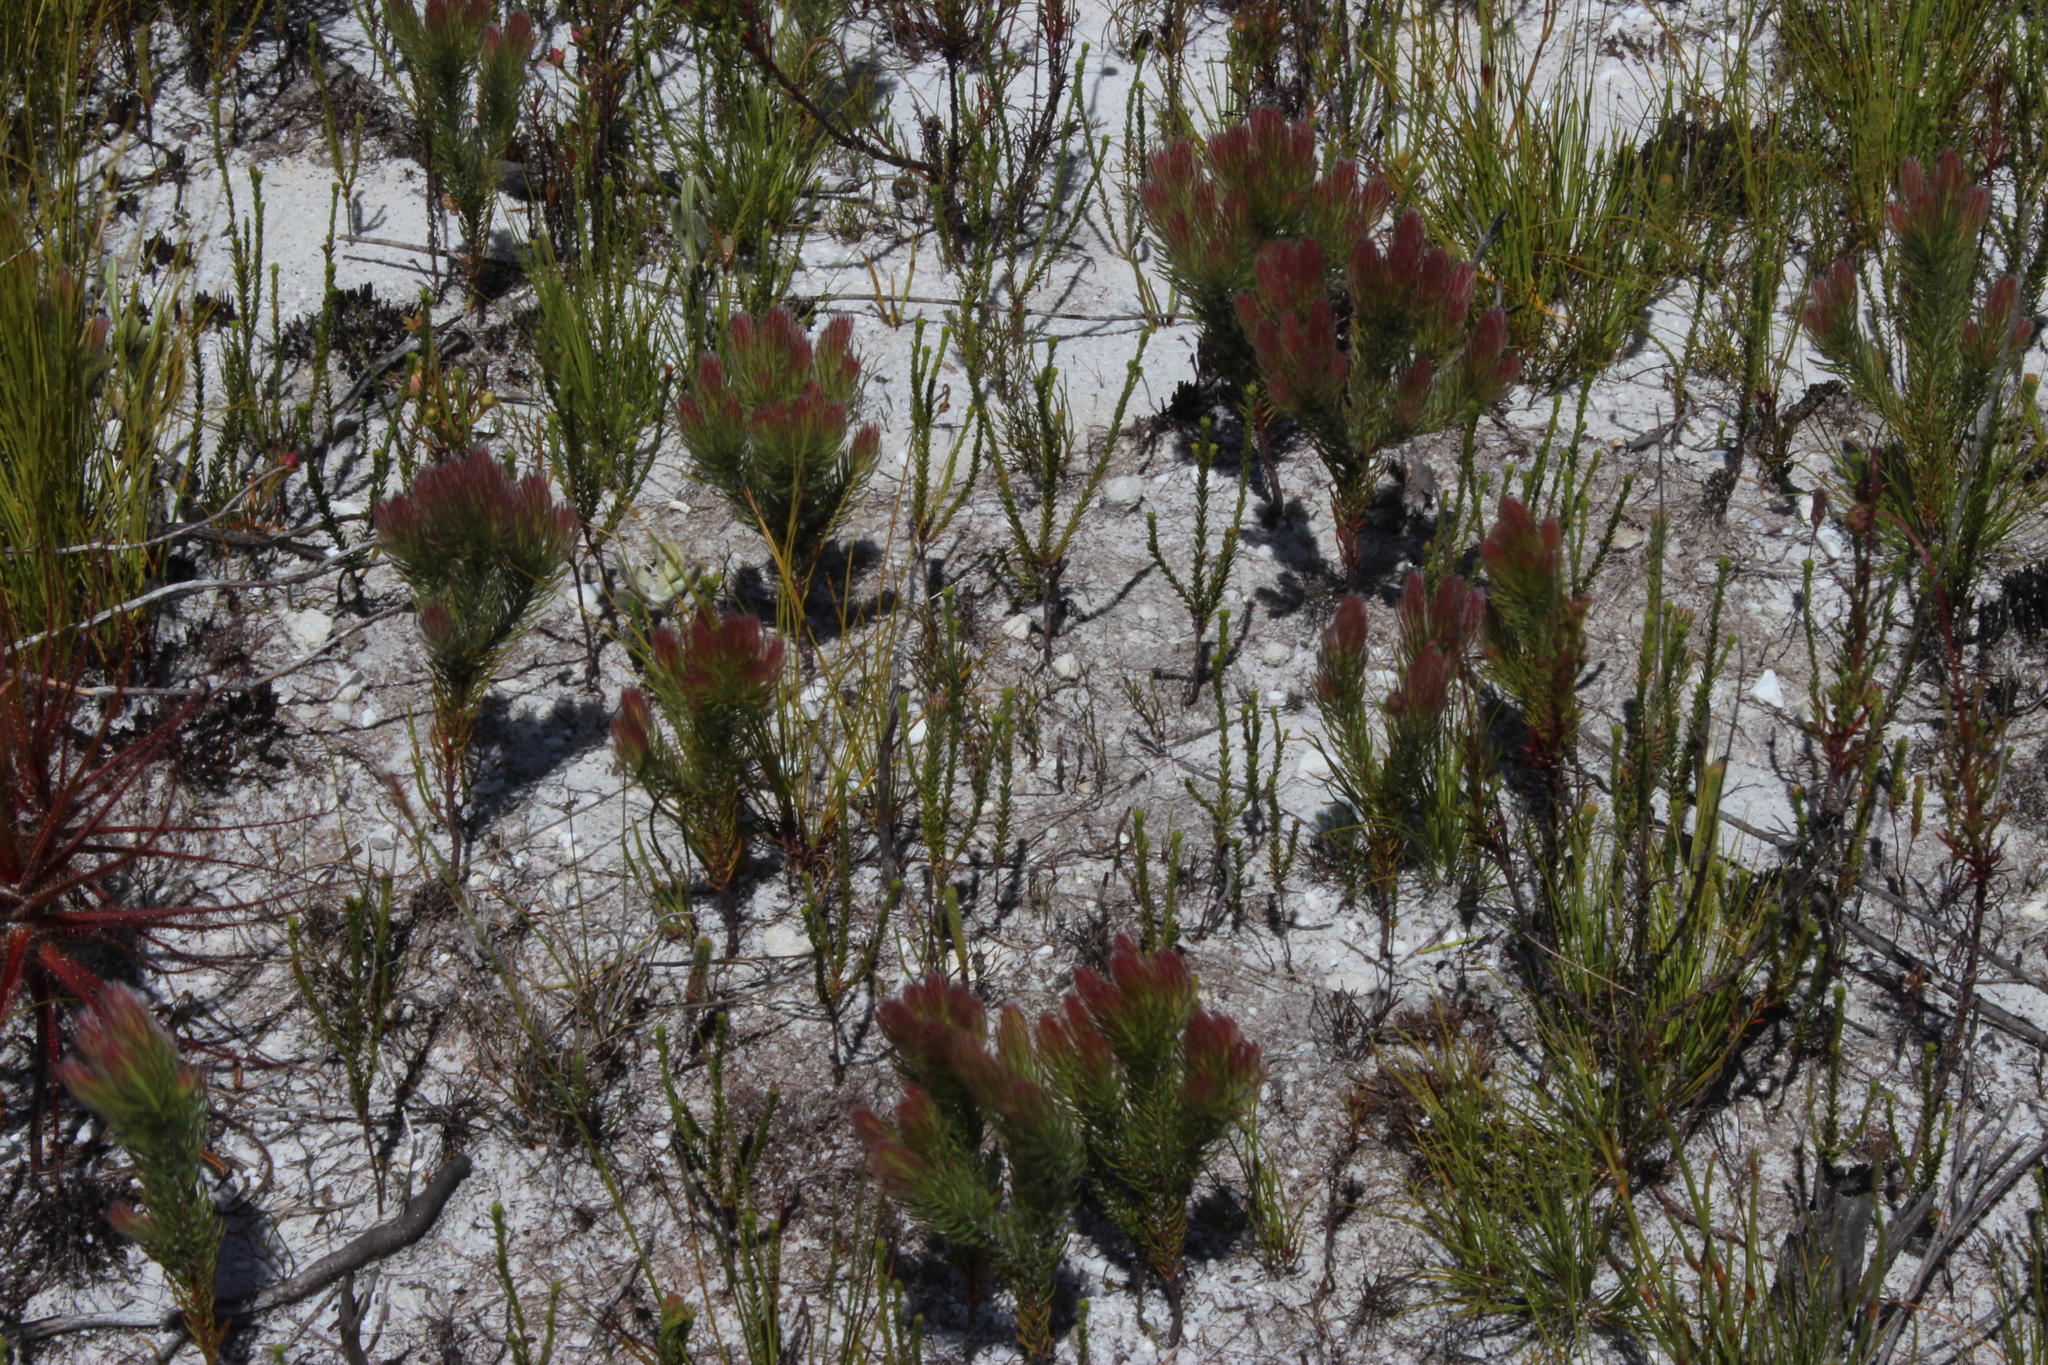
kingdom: Plantae
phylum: Tracheophyta
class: Magnoliopsida
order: Proteales
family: Proteaceae
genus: Spatalla
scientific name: Spatalla mollis
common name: Woolly spoon
